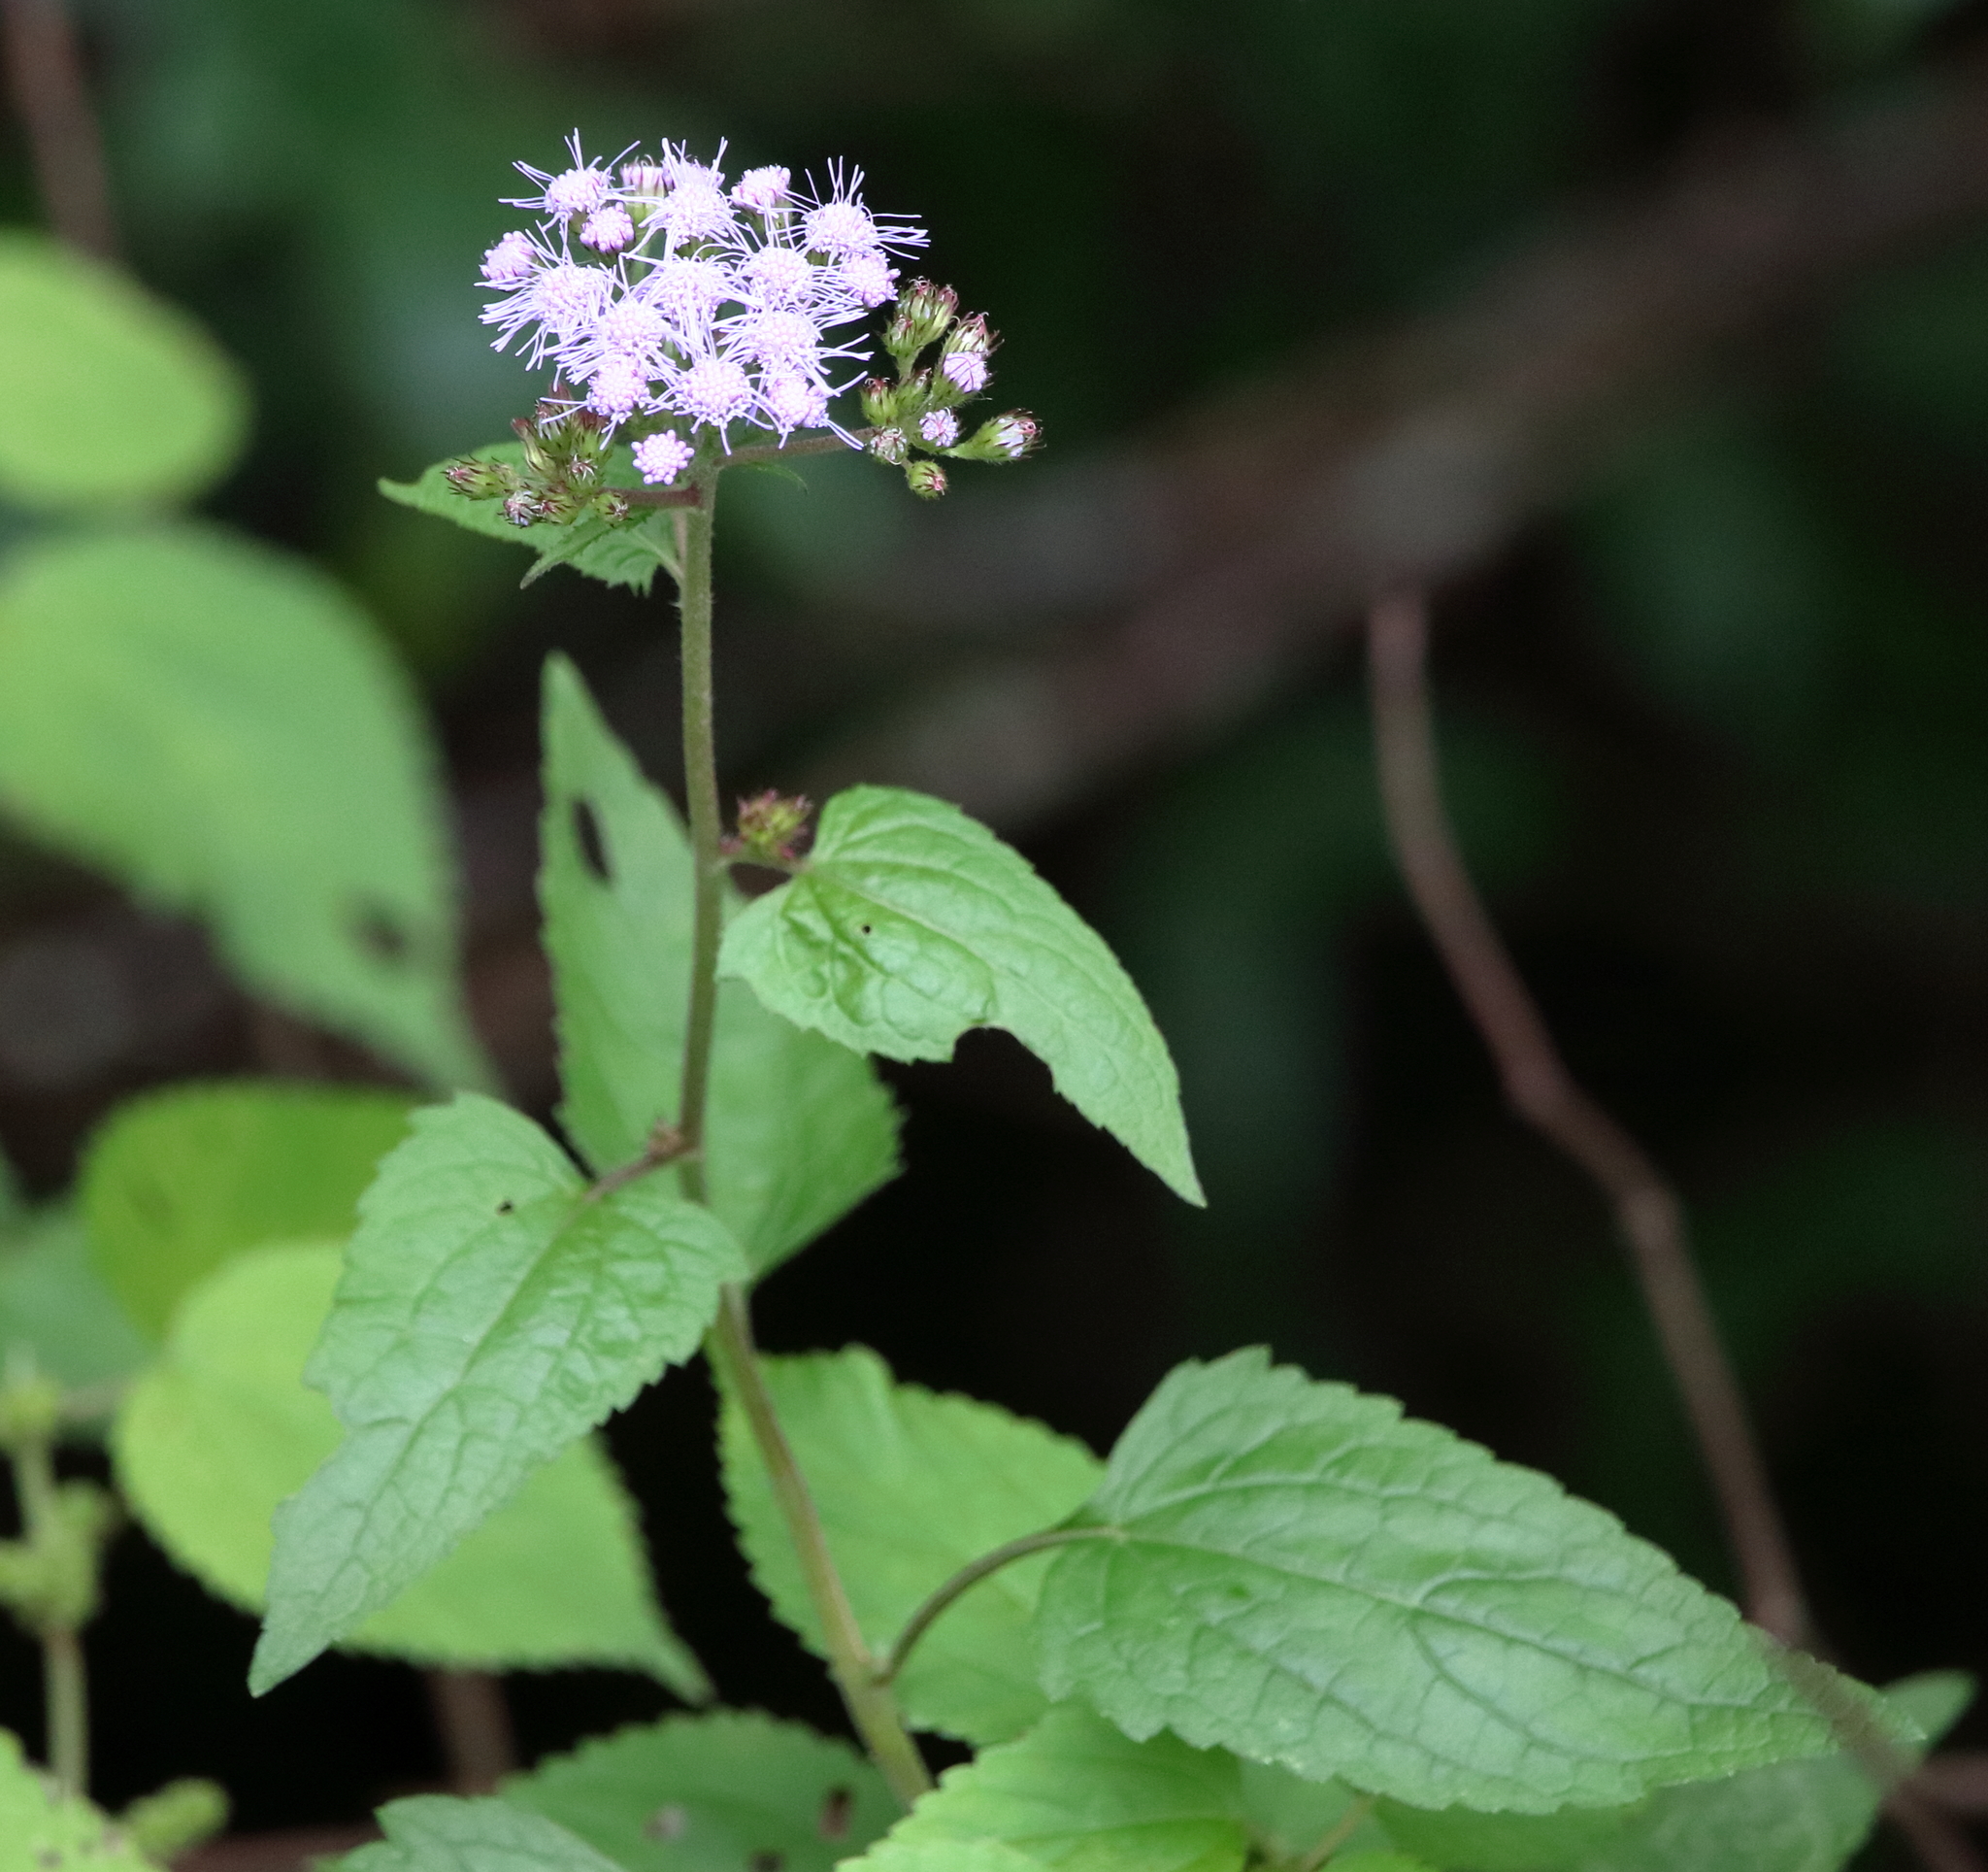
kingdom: Plantae
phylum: Tracheophyta
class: Magnoliopsida
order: Asterales
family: Asteraceae
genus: Conoclinium
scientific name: Conoclinium coelestinum
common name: Blue mistflower
